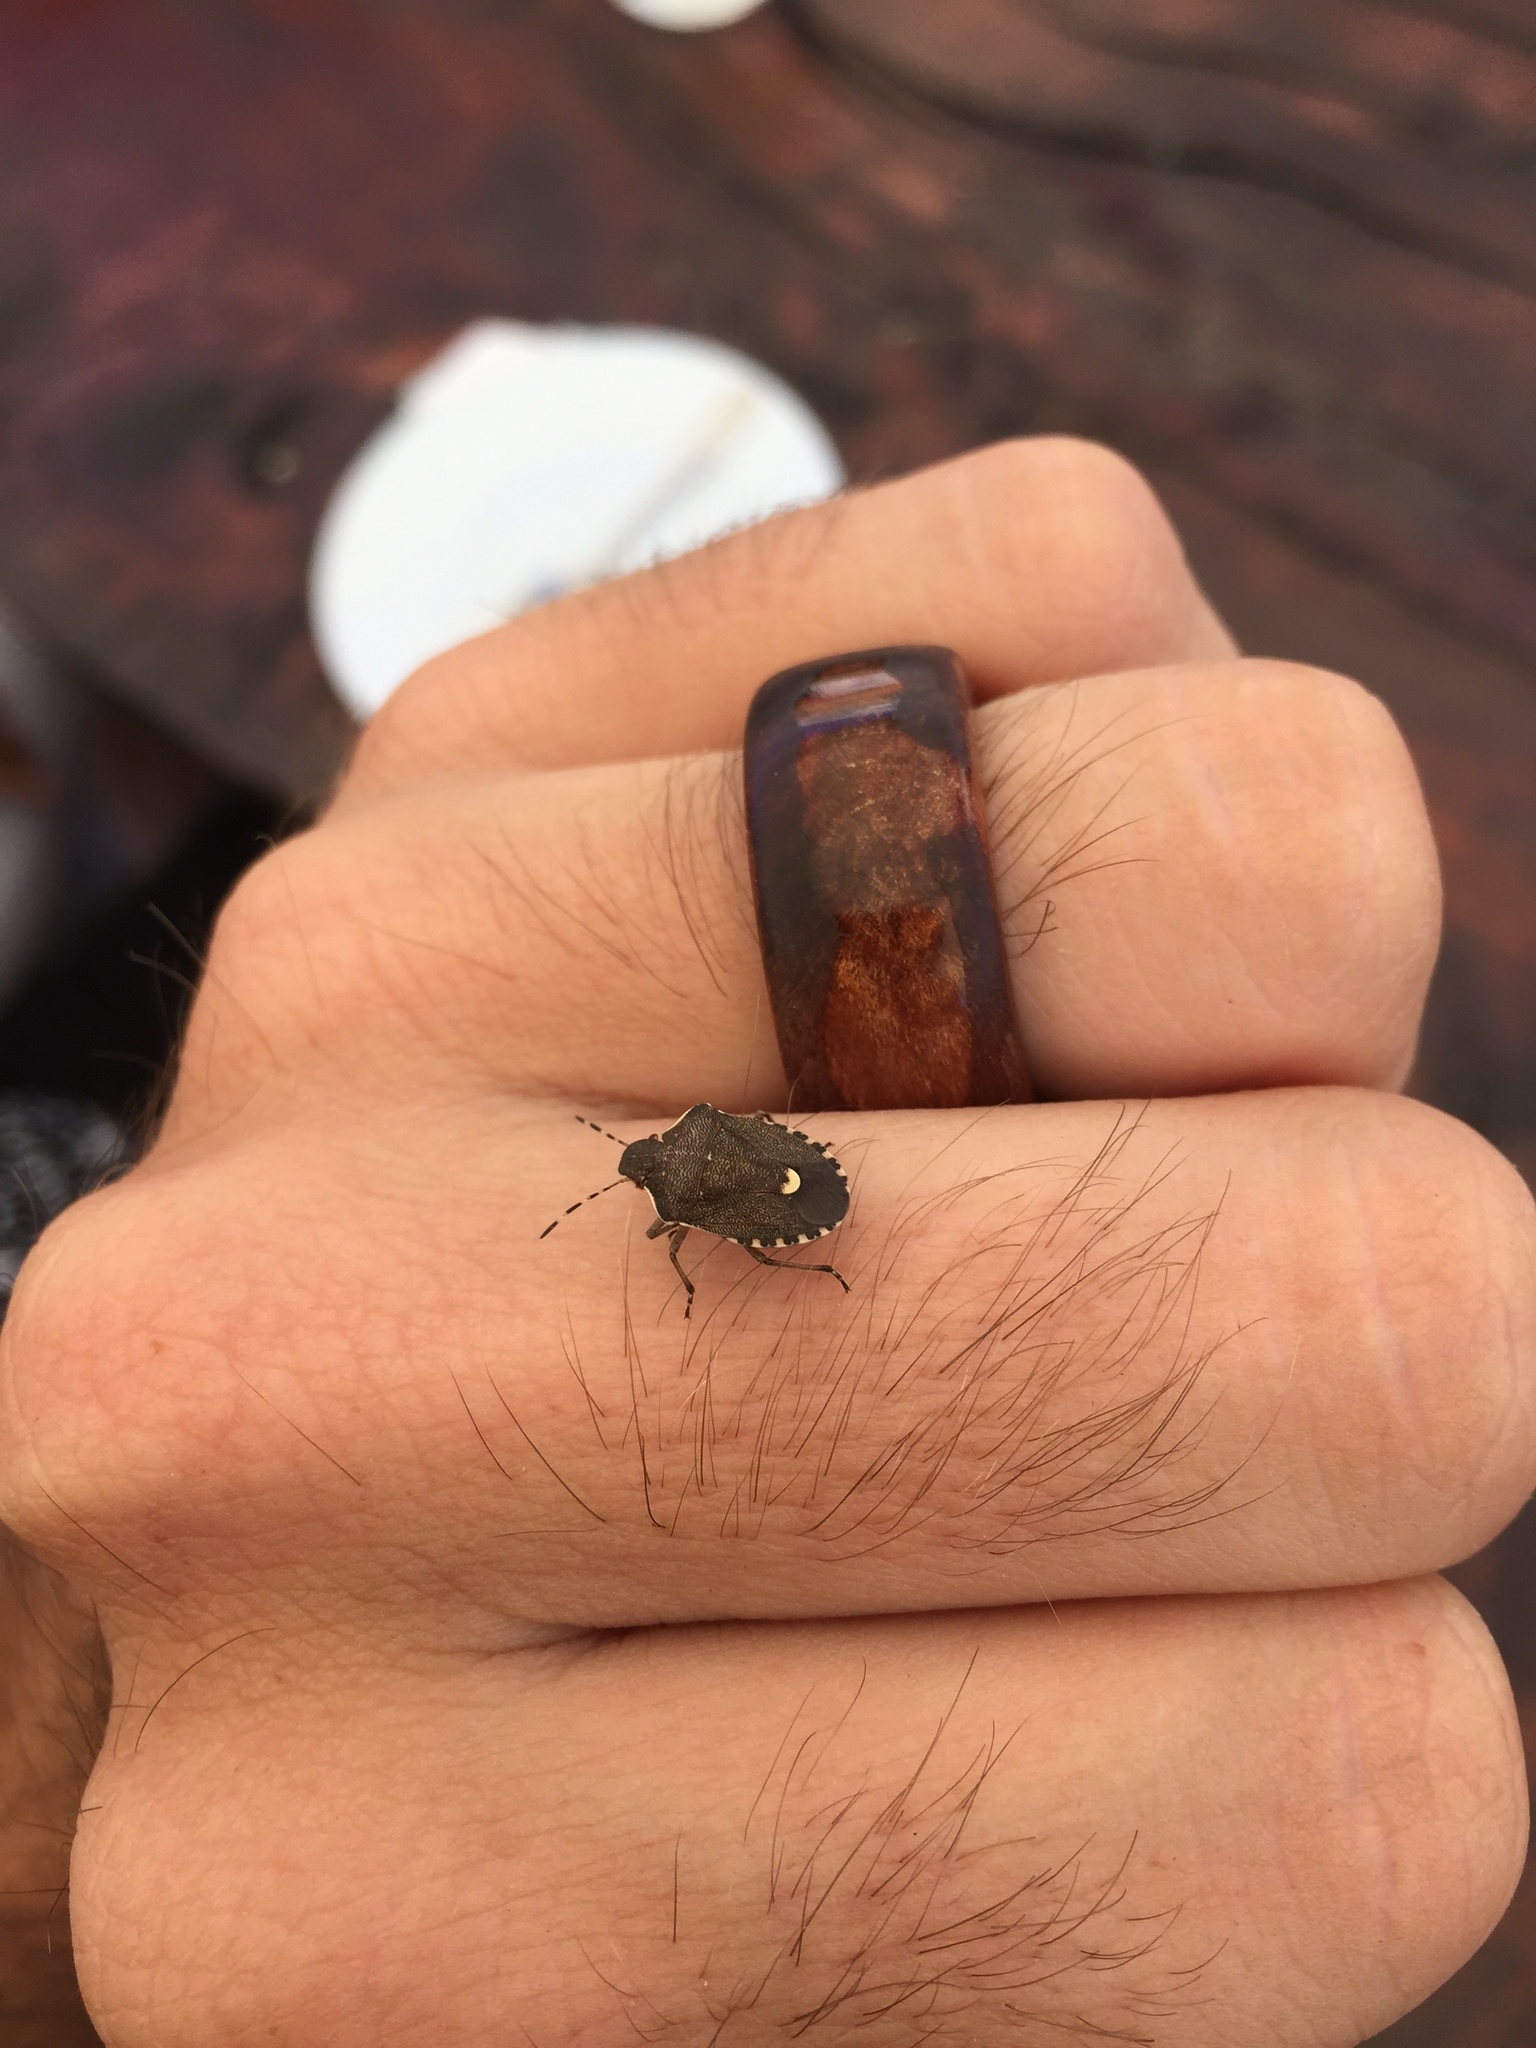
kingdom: Animalia
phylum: Arthropoda
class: Insecta
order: Hemiptera
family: Pentatomidae
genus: Holcostethus
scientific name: Holcostethus sphacelatus
